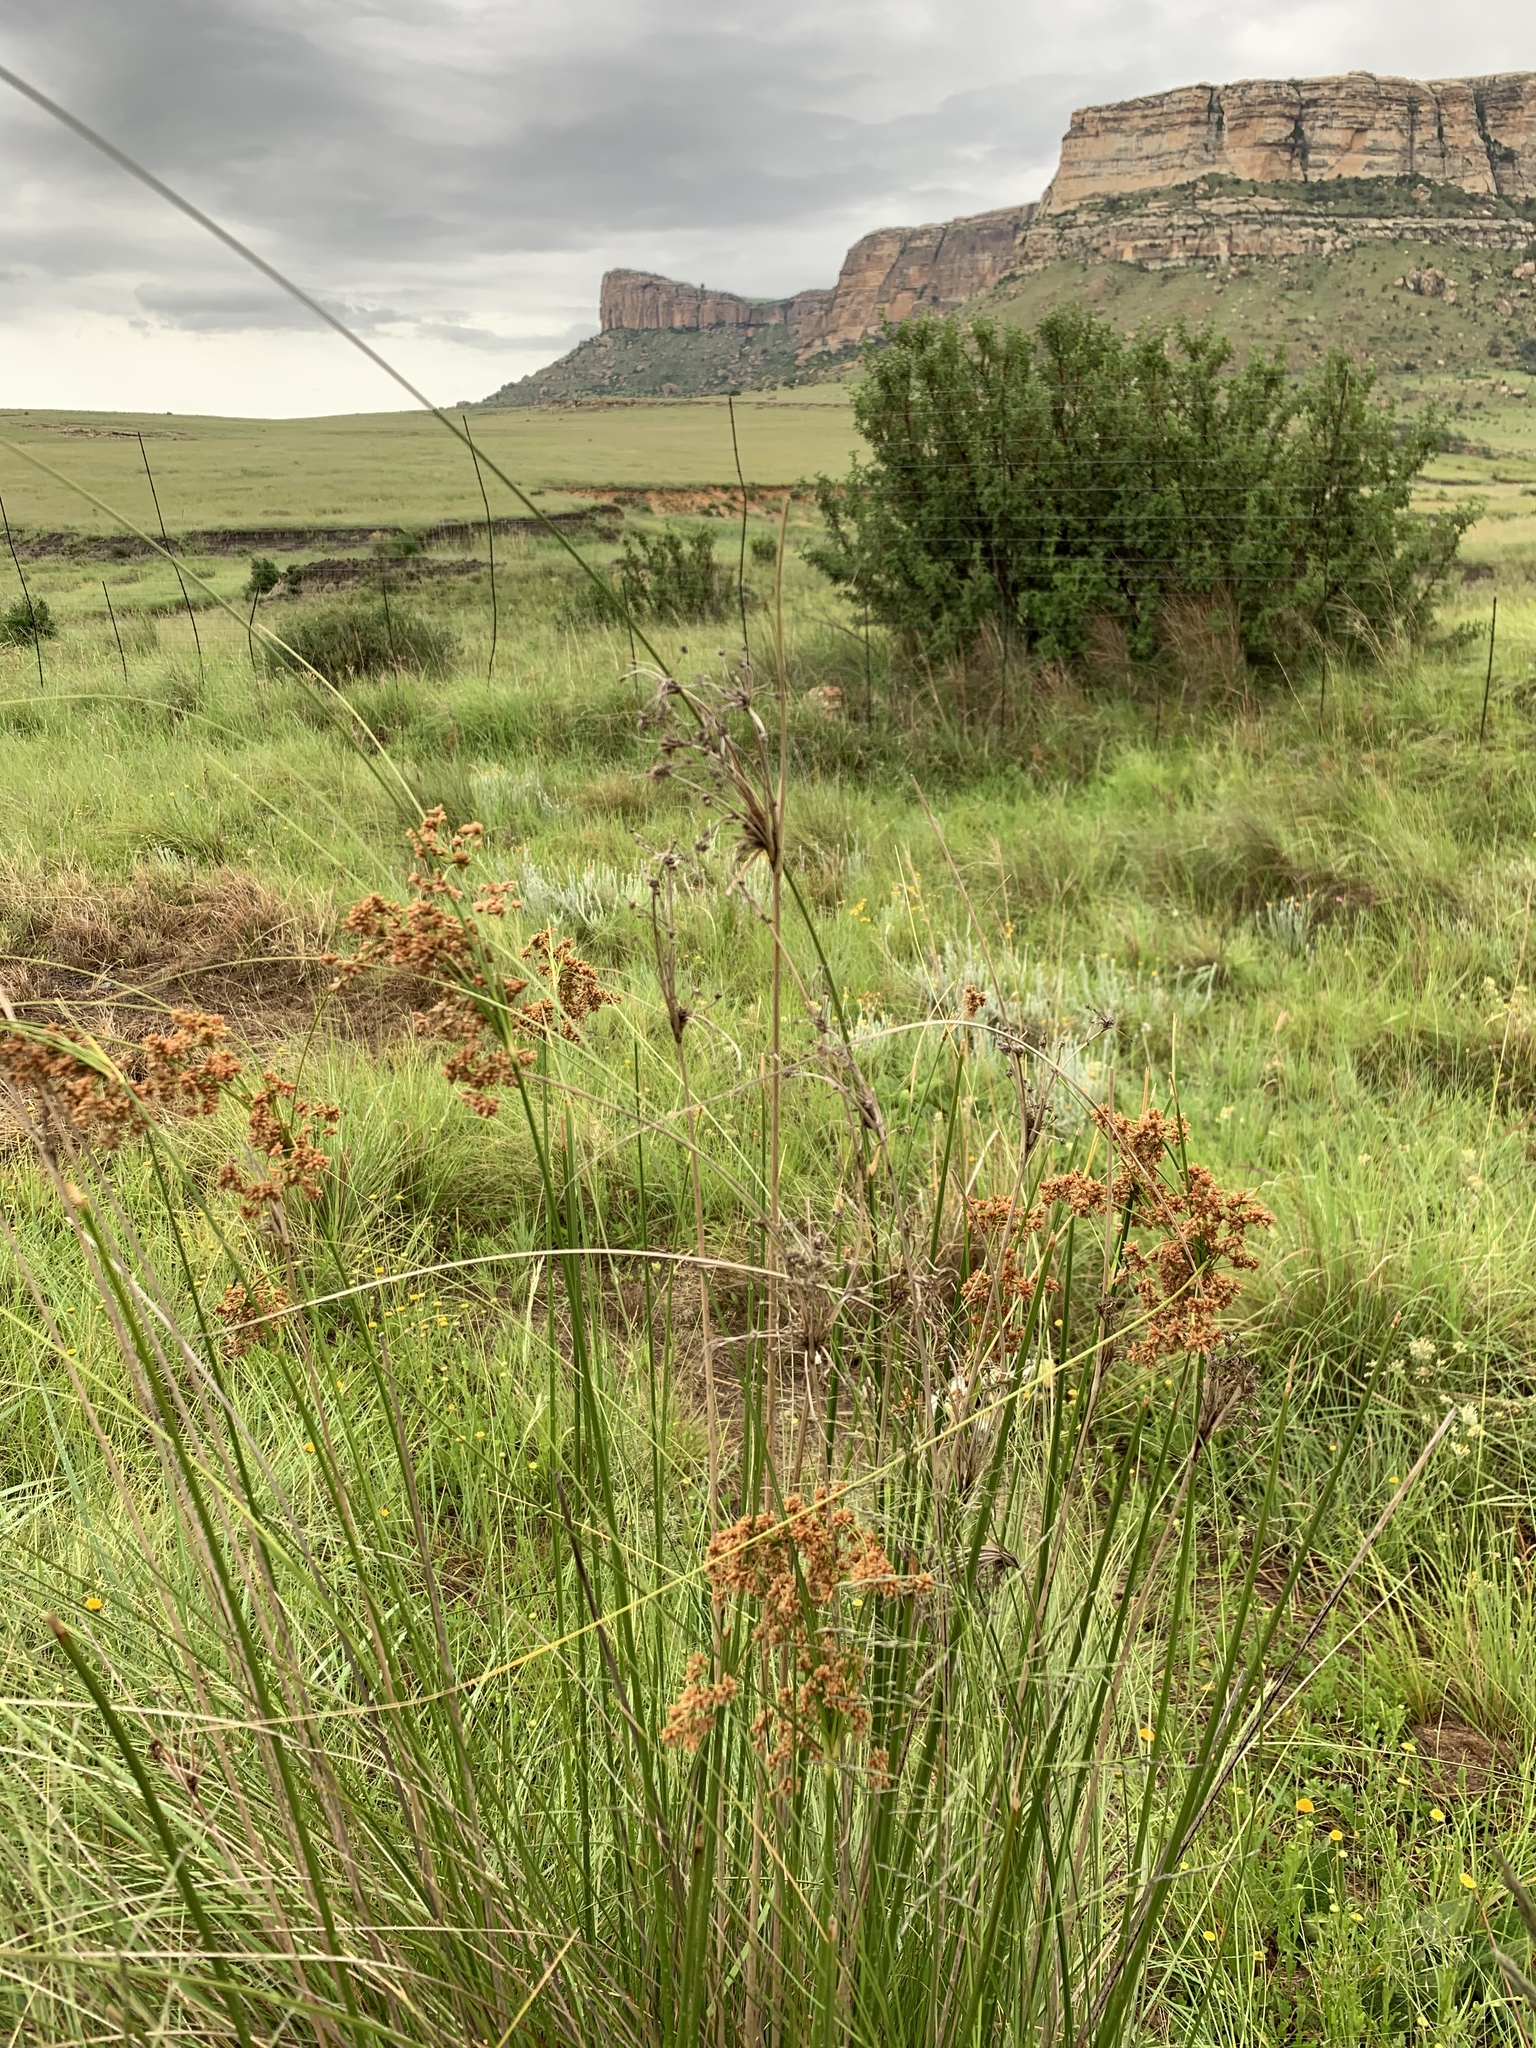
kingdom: Plantae
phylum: Tracheophyta
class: Liliopsida
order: Poales
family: Cyperaceae
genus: Scirpoides
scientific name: Scirpoides burkei
